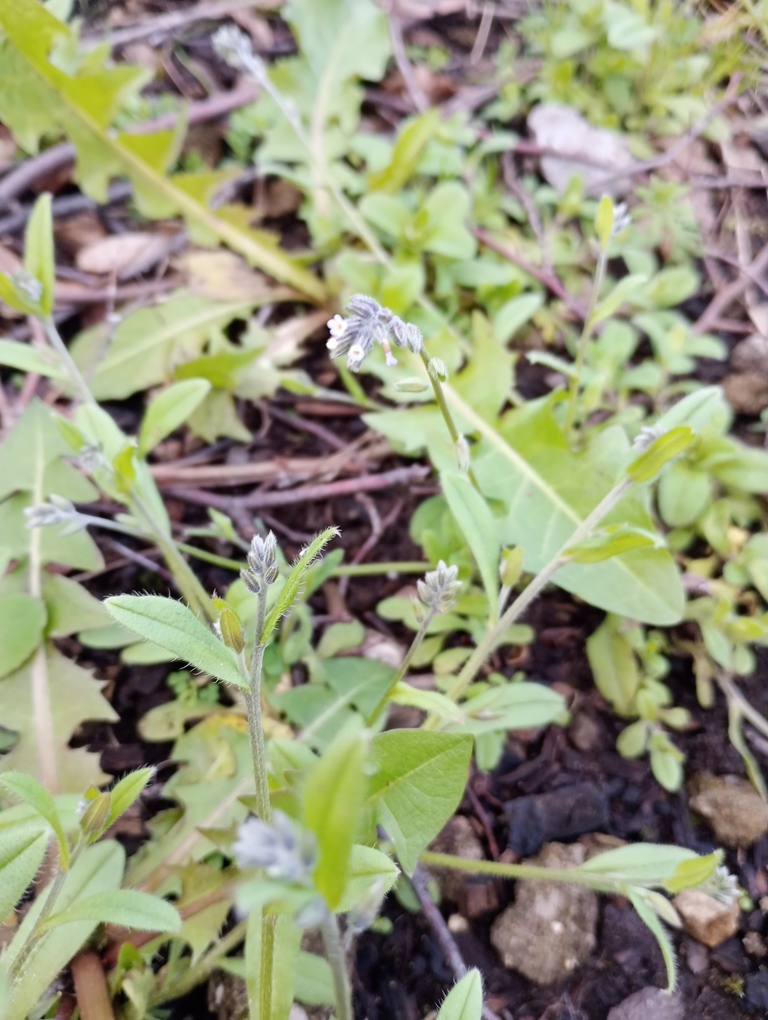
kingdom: Plantae
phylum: Tracheophyta
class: Magnoliopsida
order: Boraginales
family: Boraginaceae
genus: Myosotis
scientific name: Myosotis discolor
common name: Changing forget-me-not
